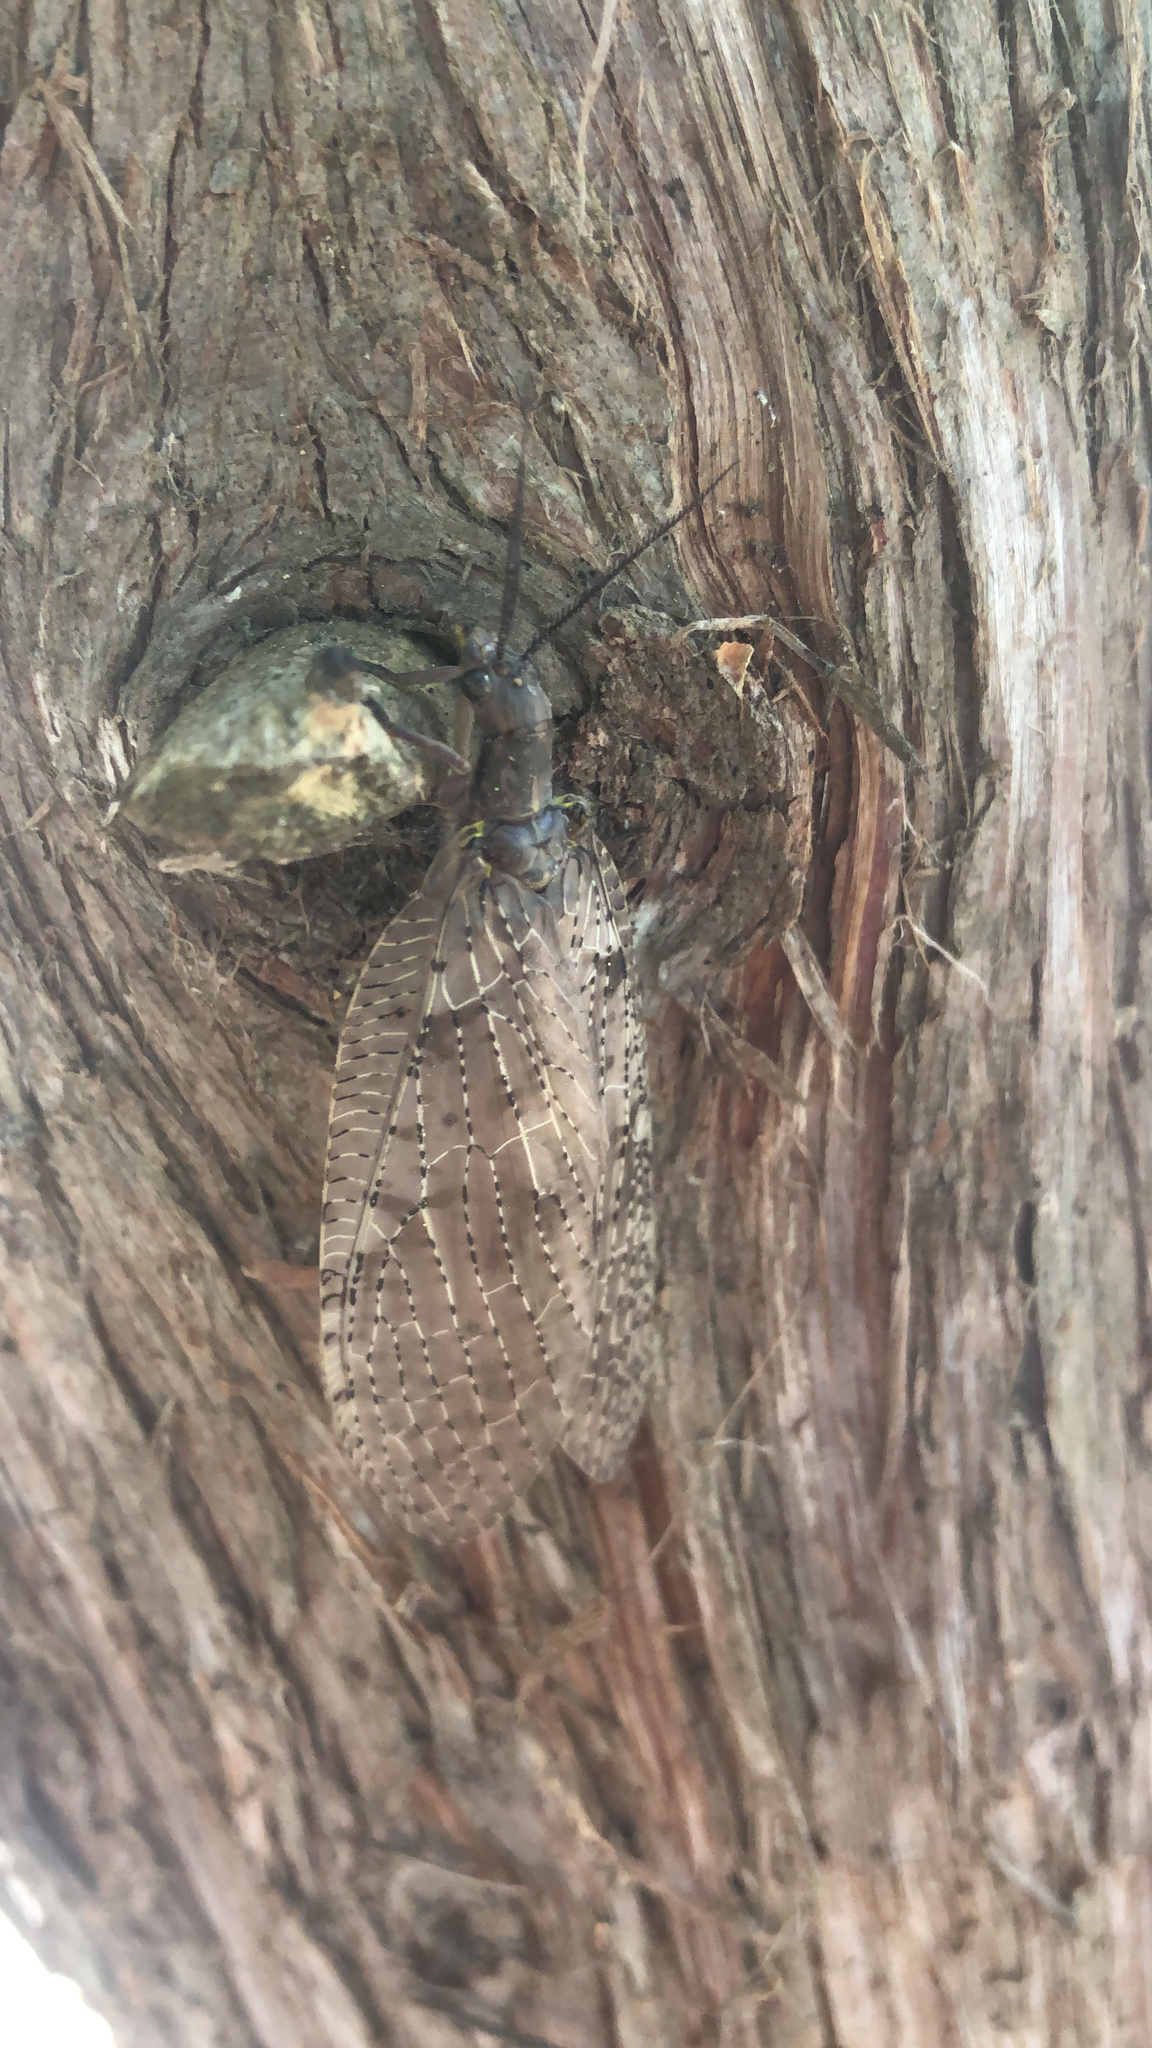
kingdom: Animalia
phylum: Arthropoda
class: Insecta
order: Megaloptera
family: Corydalidae
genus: Chauliodes
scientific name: Chauliodes pectinicornis
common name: Summer fishfly
